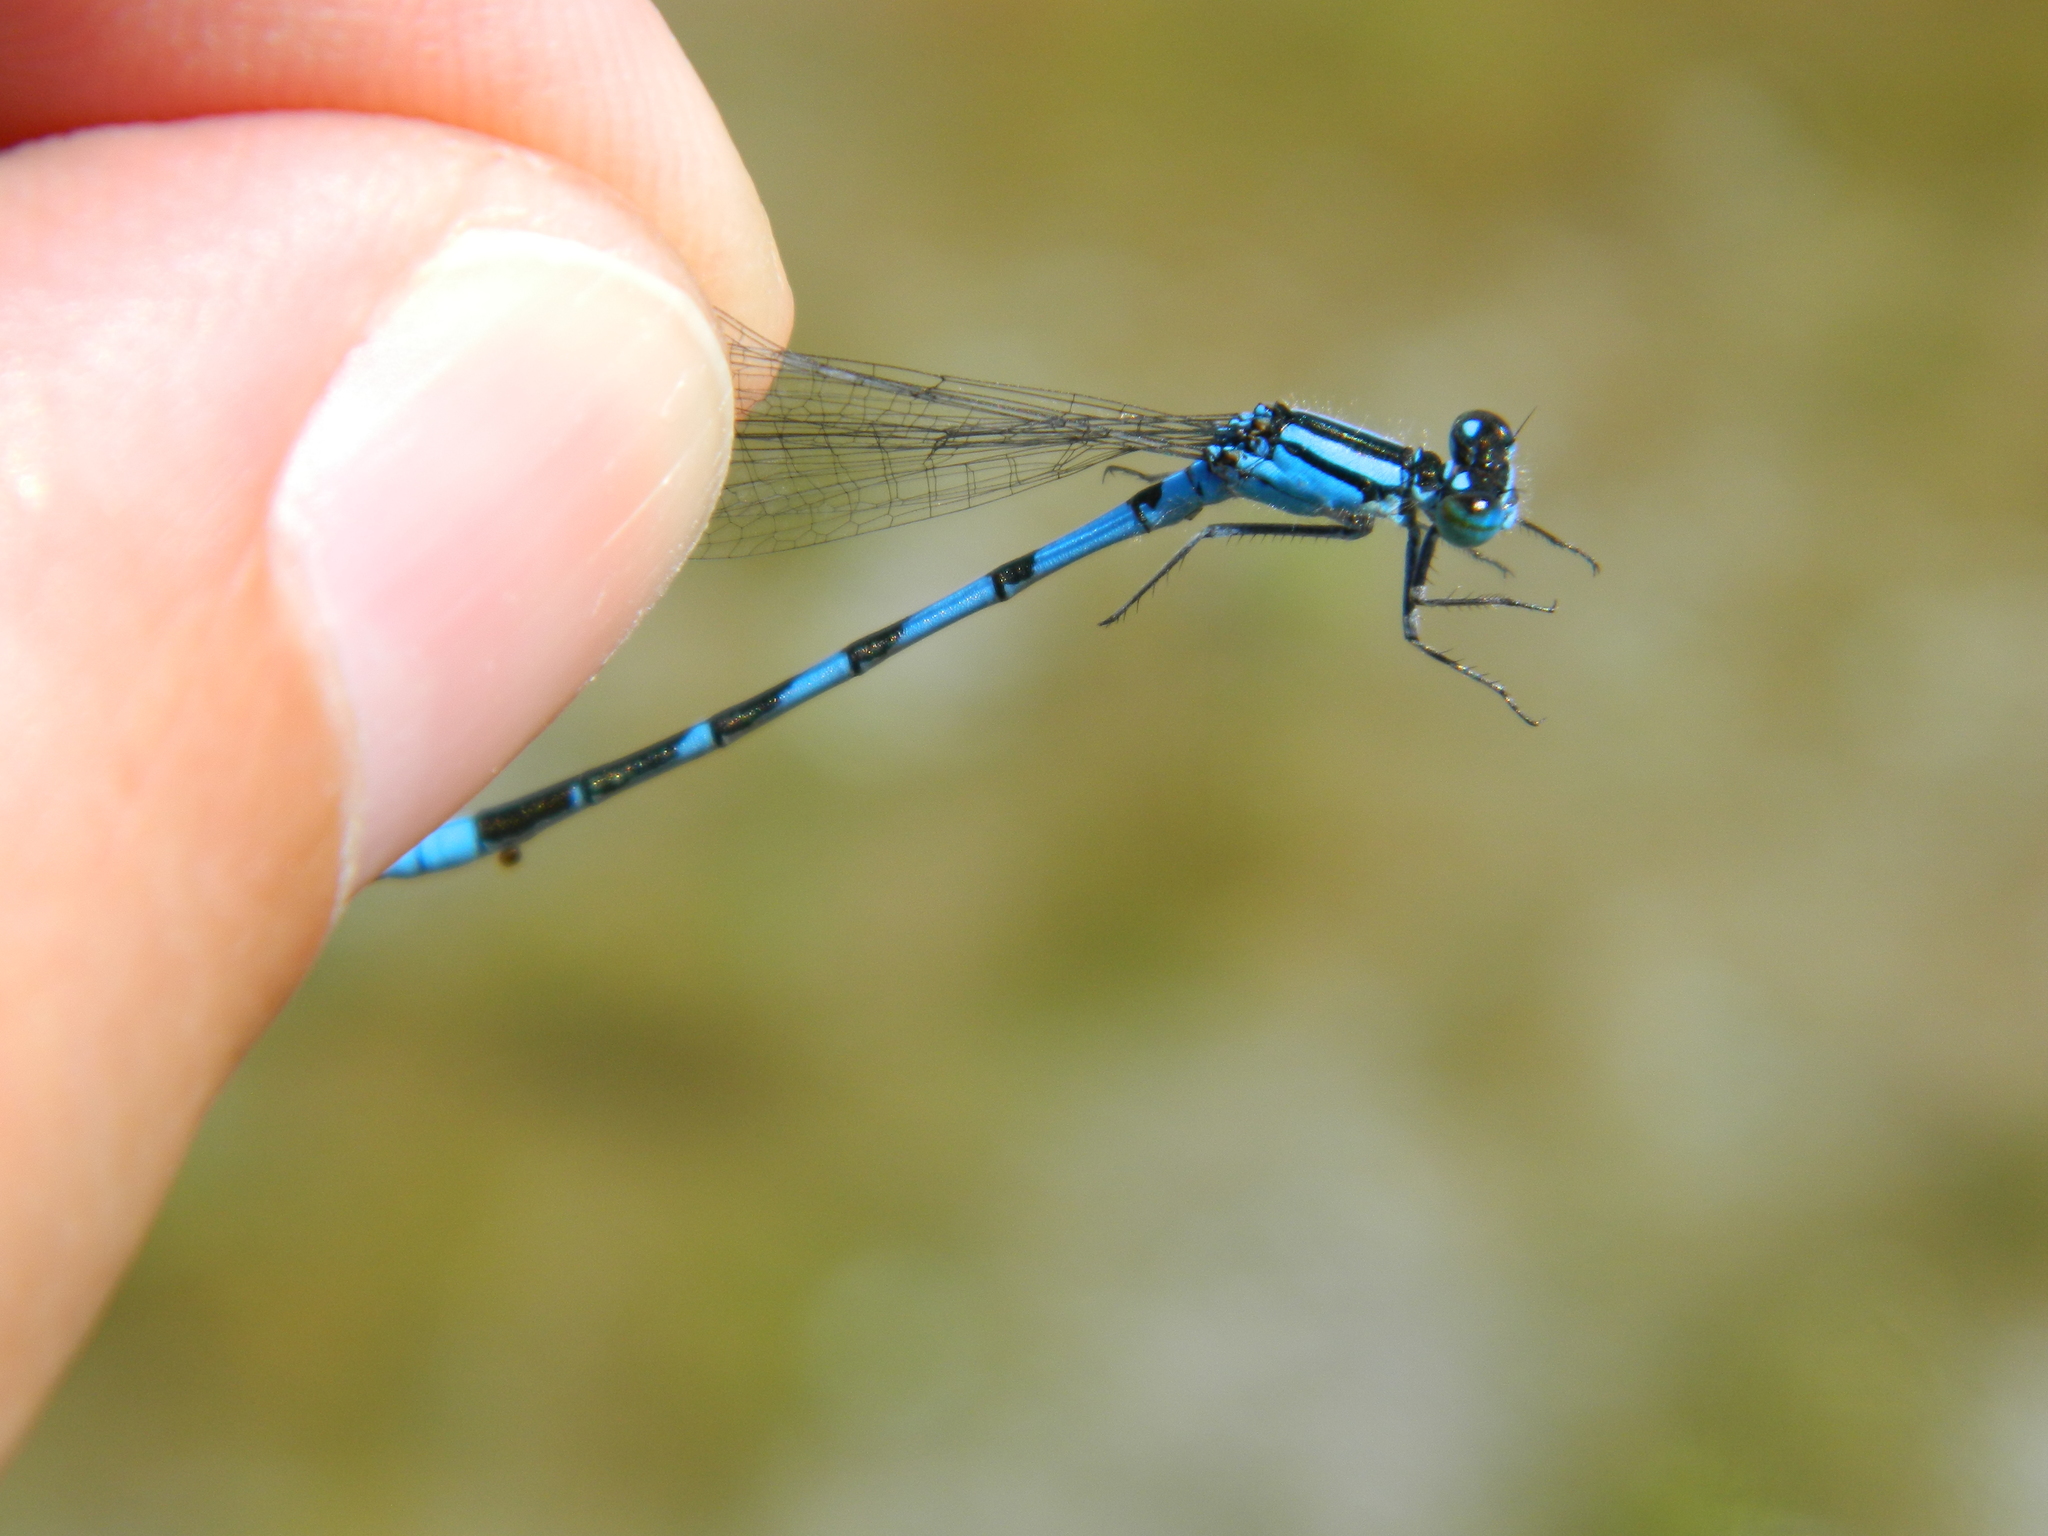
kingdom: Animalia
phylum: Arthropoda
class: Insecta
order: Odonata
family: Coenagrionidae
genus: Enallagma
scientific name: Enallagma hageni
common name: Hagen's bluet
